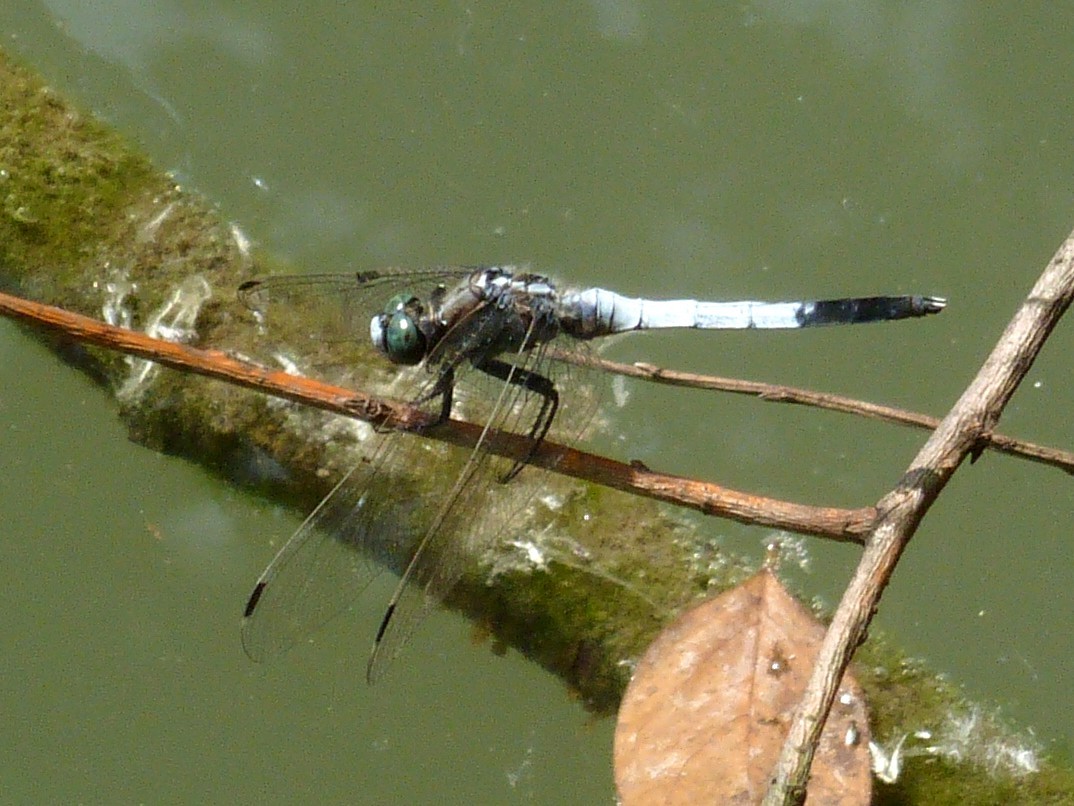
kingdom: Animalia
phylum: Arthropoda
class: Insecta
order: Odonata
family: Libellulidae
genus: Orthetrum
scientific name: Orthetrum albistylum
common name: White-tailed skimmer
